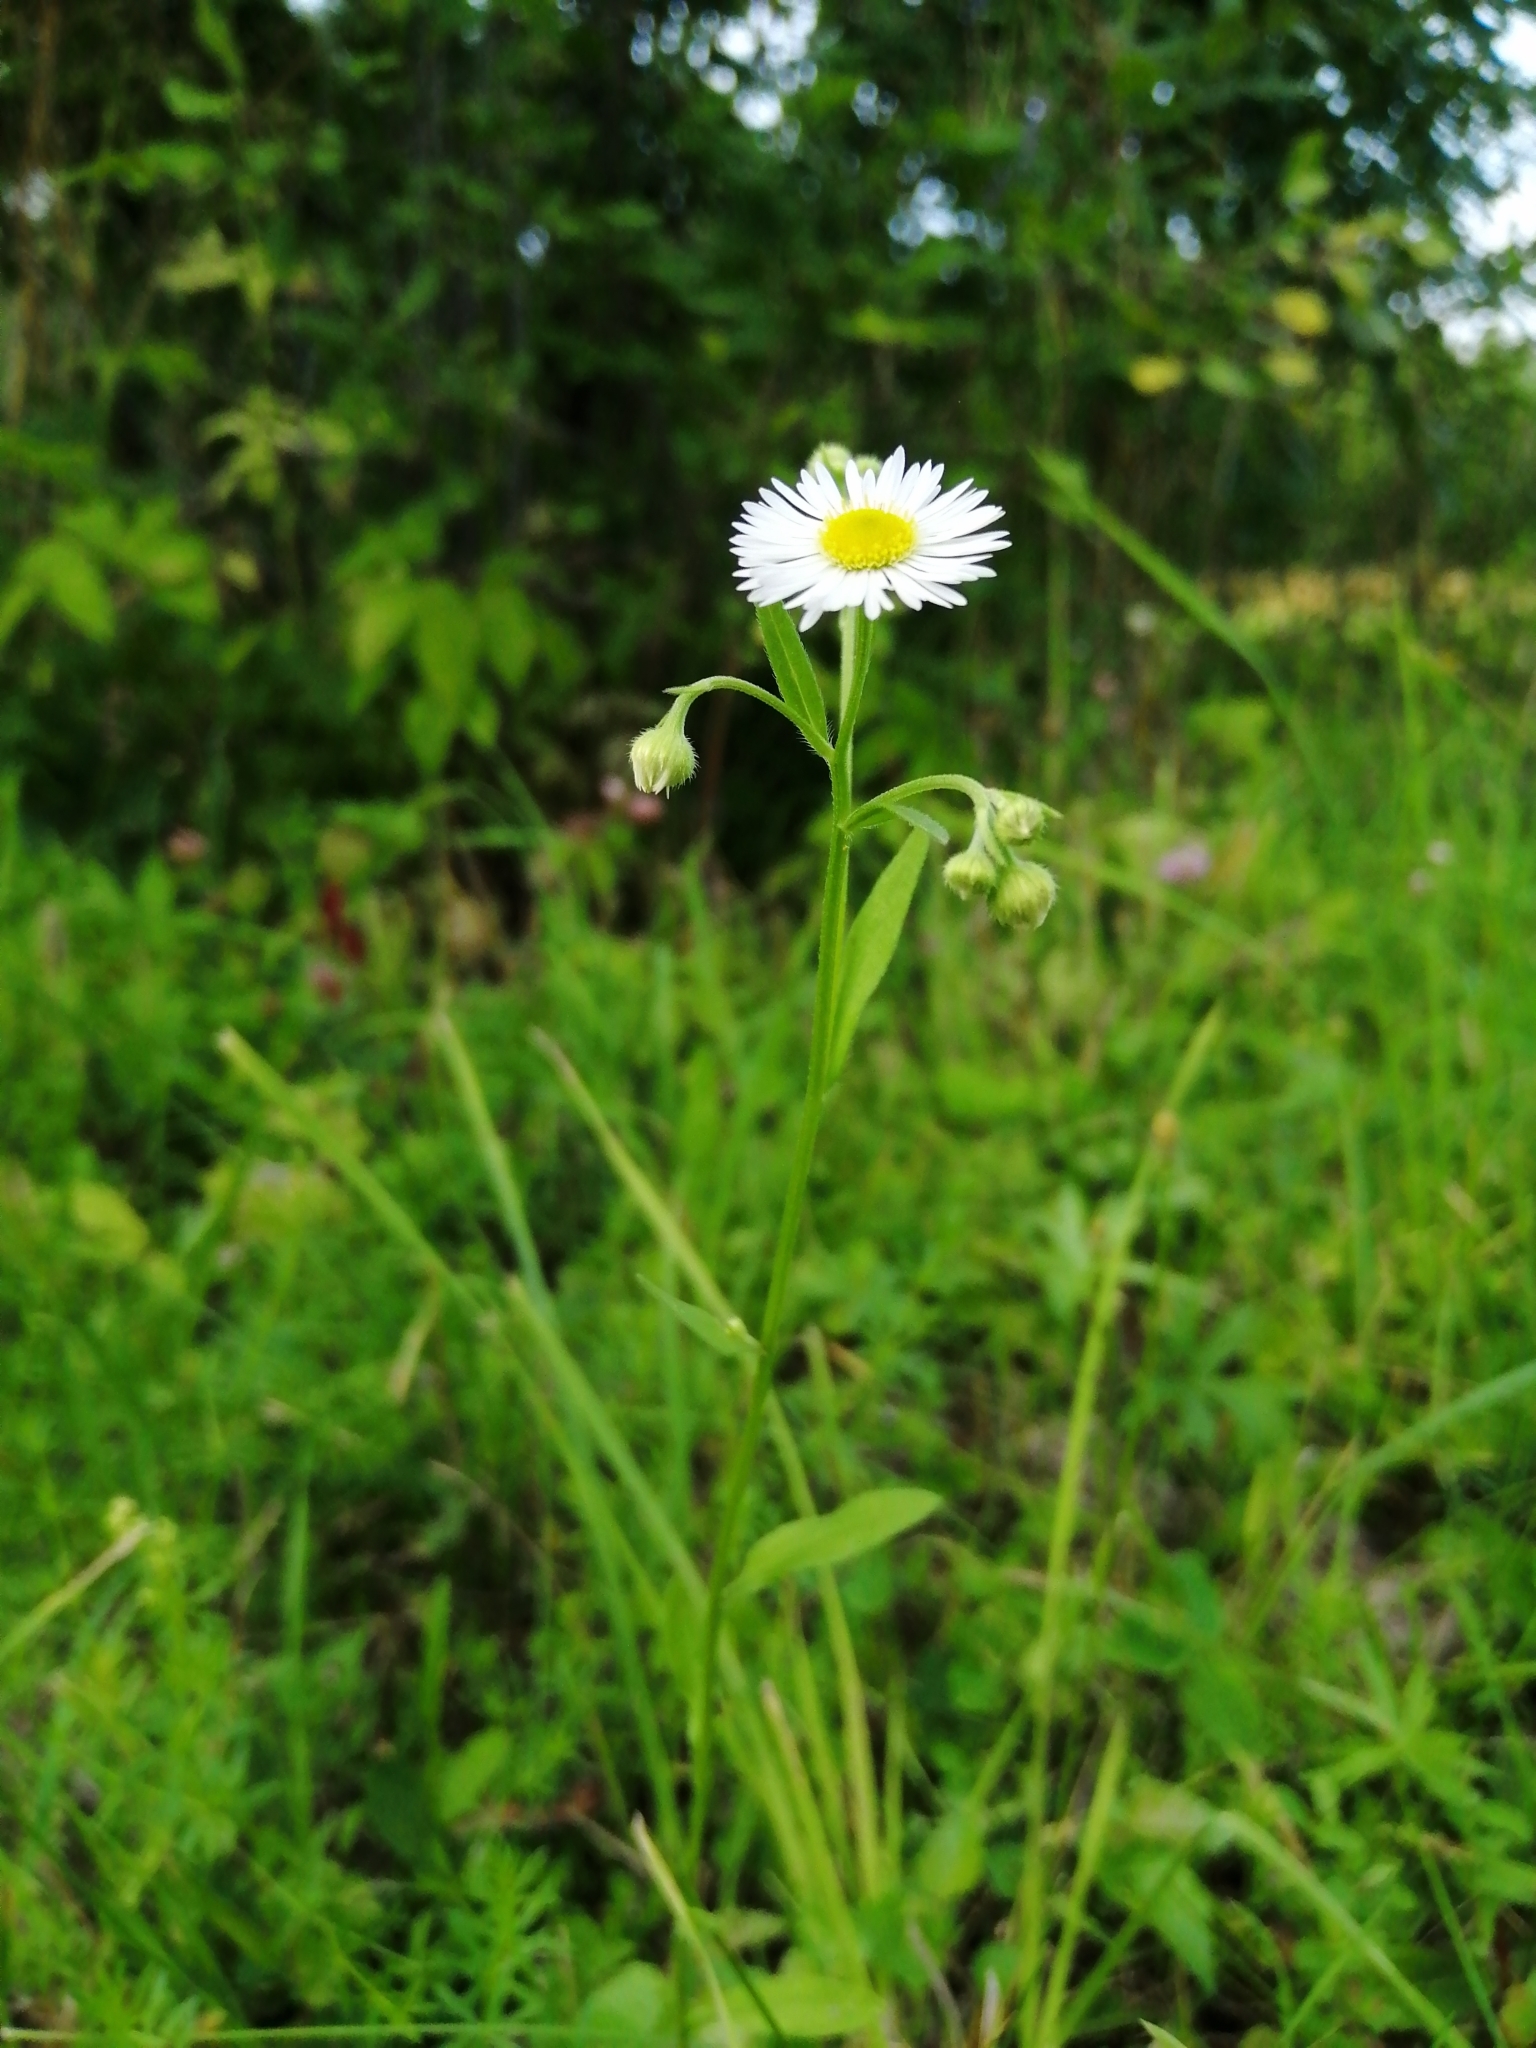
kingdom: Plantae
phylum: Tracheophyta
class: Magnoliopsida
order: Asterales
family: Asteraceae
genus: Erigeron
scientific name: Erigeron annuus
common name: Tall fleabane
